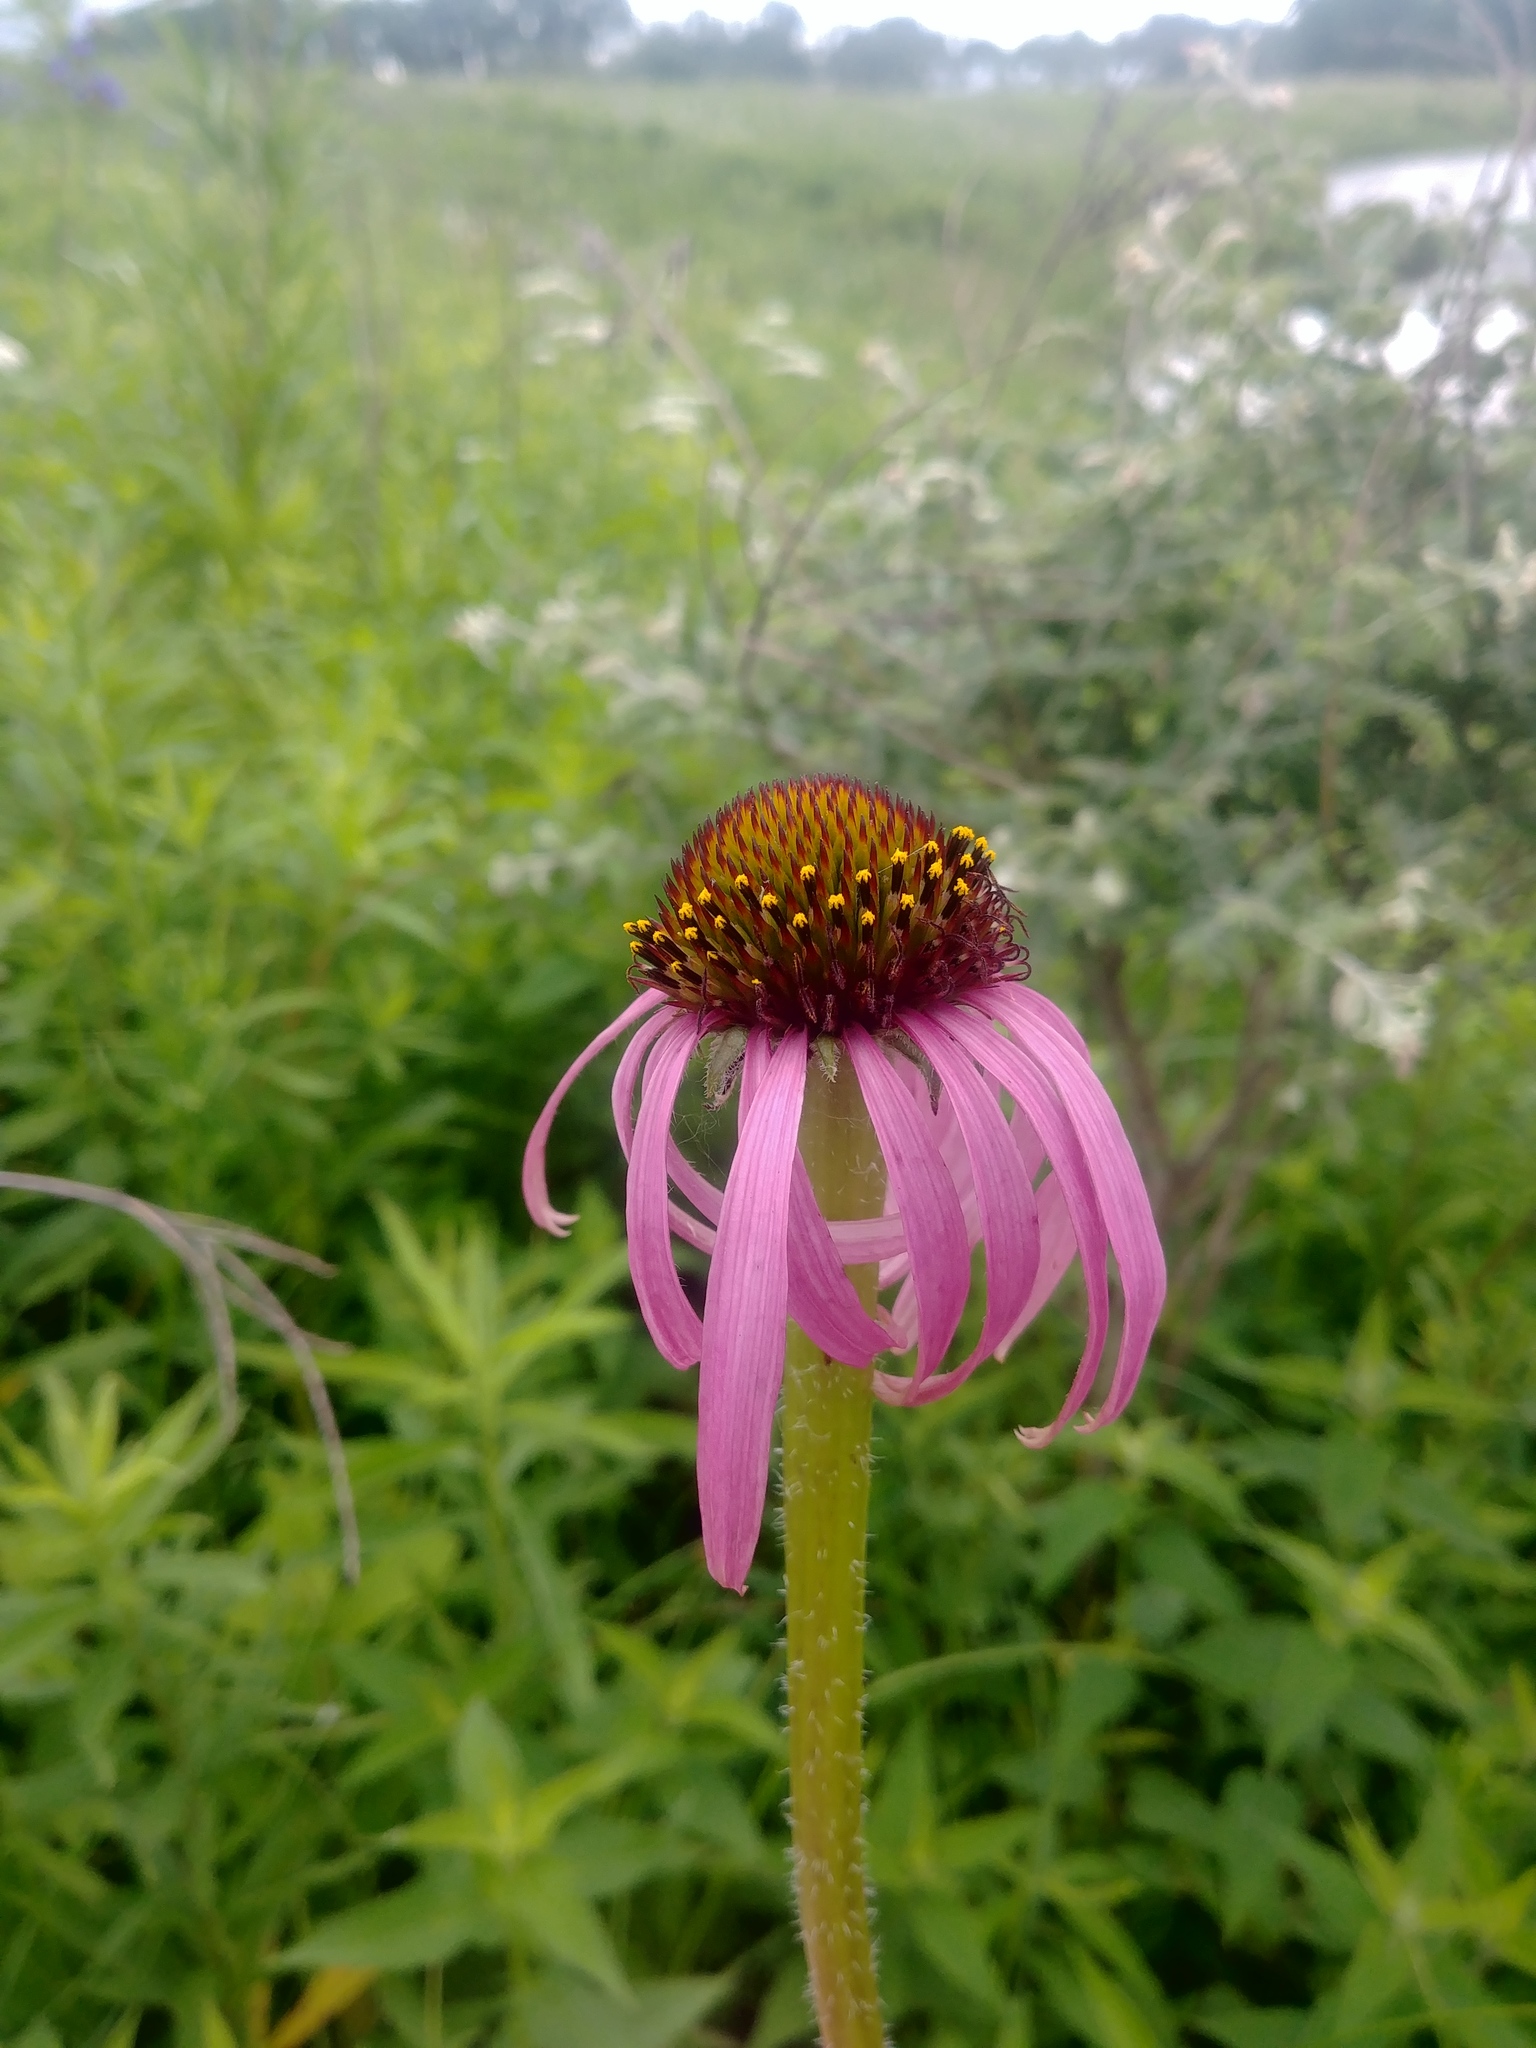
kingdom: Plantae
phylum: Tracheophyta
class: Magnoliopsida
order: Asterales
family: Asteraceae
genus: Echinacea
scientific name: Echinacea simulata
